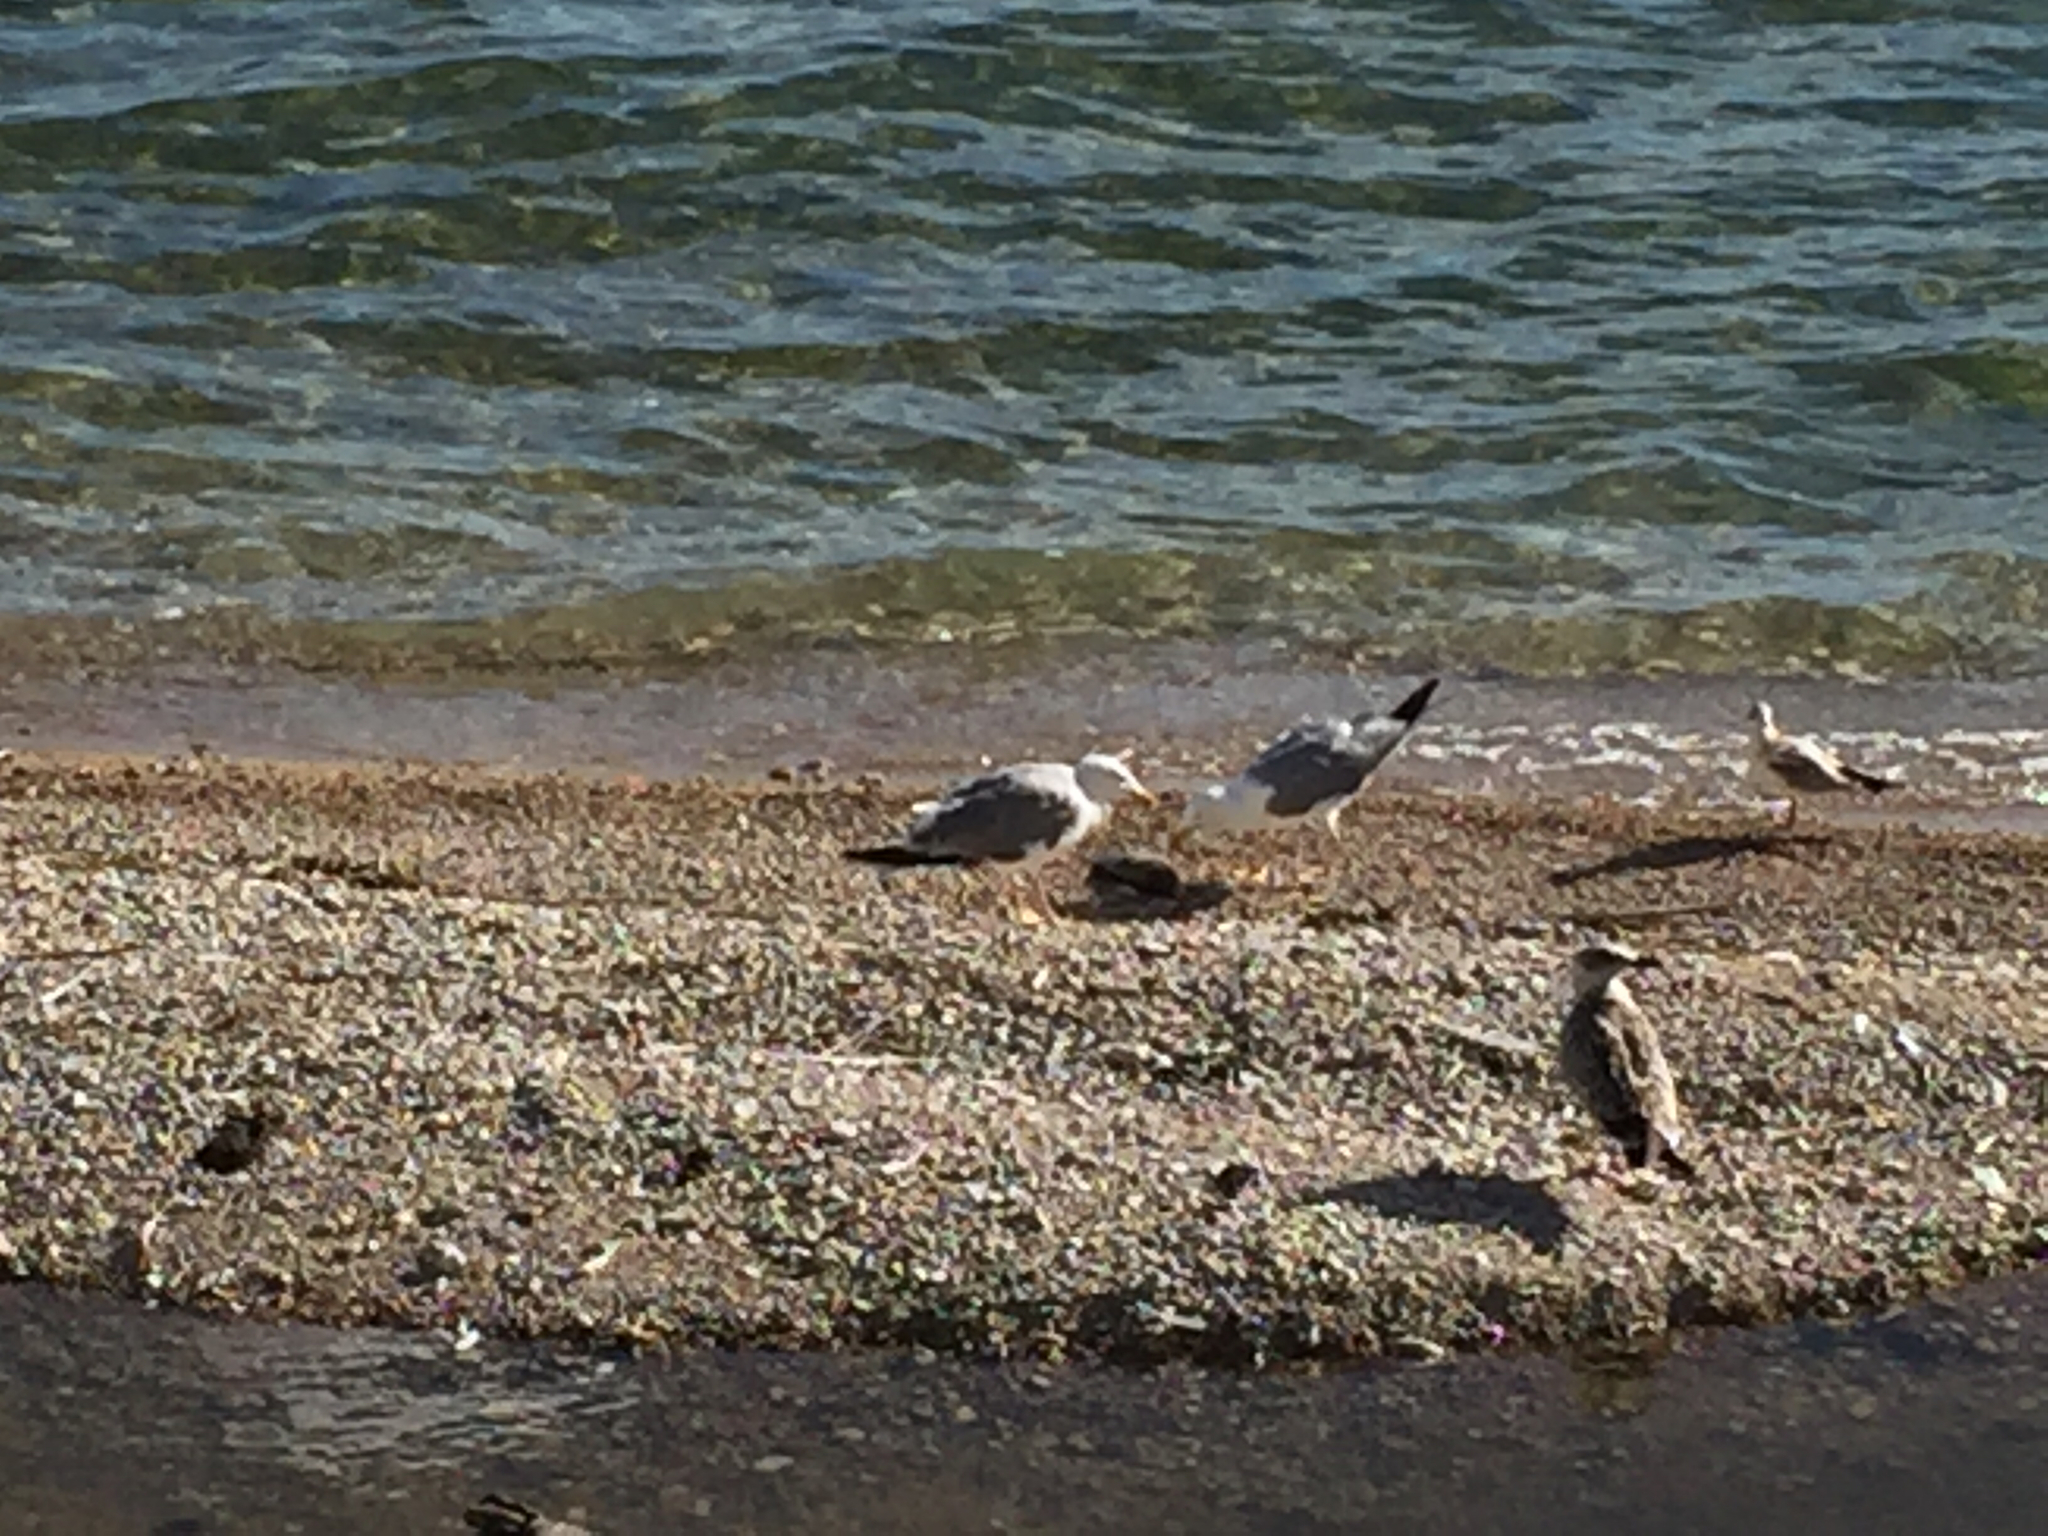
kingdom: Animalia
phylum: Chordata
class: Aves
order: Charadriiformes
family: Laridae
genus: Larus
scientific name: Larus michahellis
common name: Yellow-legged gull
